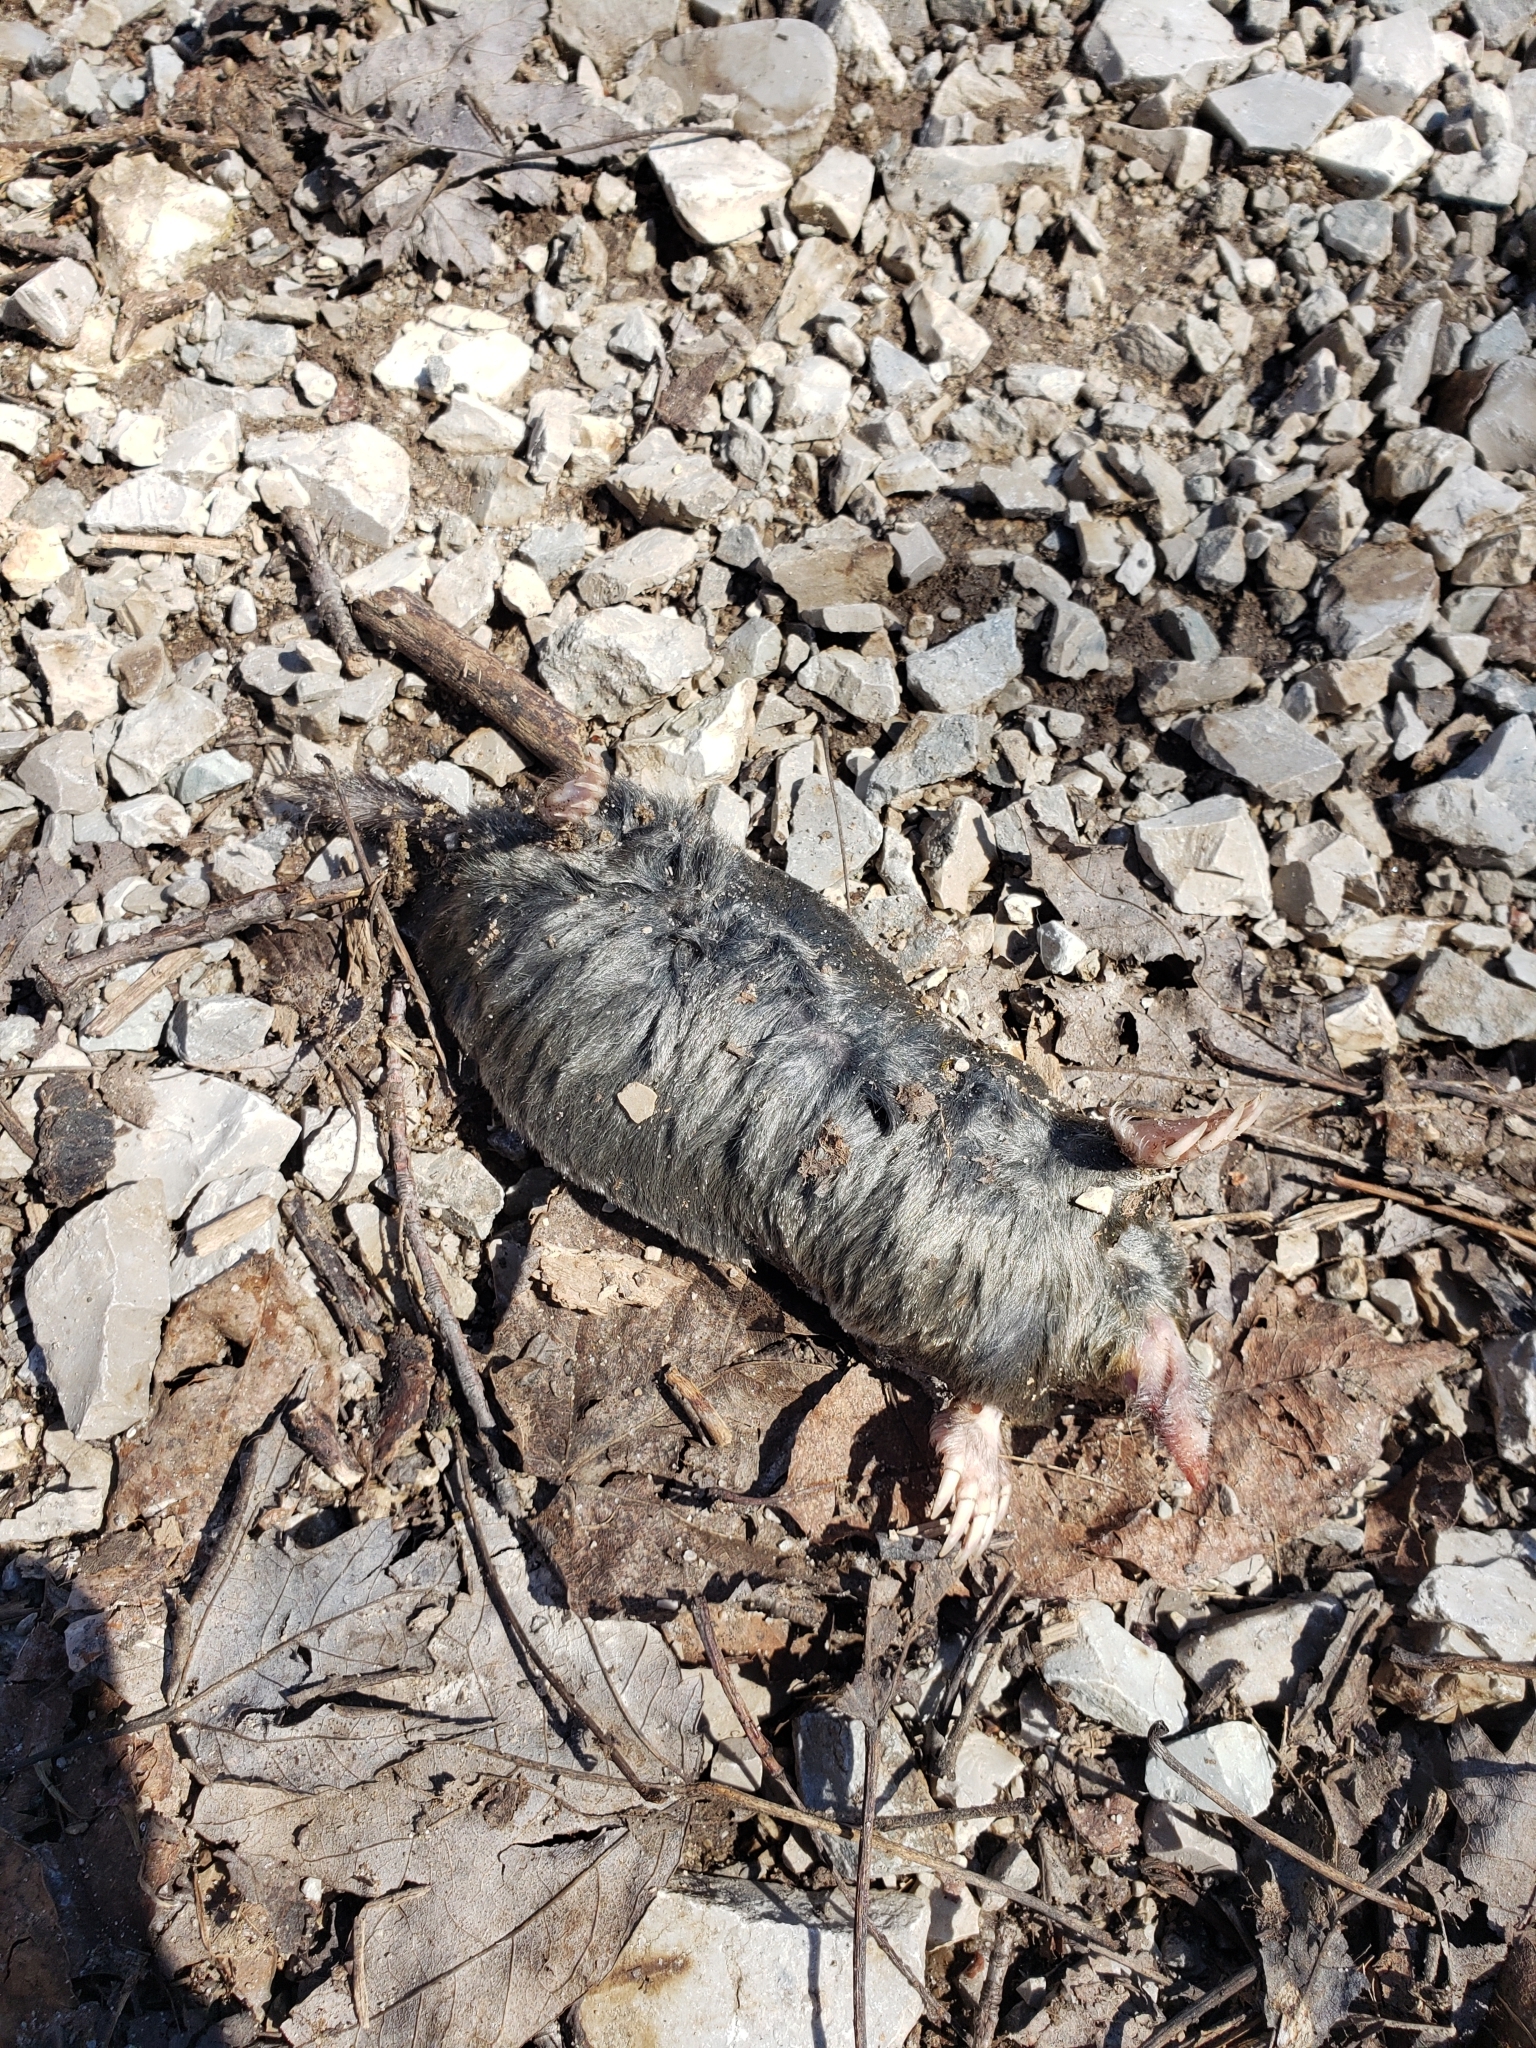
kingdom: Animalia
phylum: Chordata
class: Mammalia
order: Soricomorpha
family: Talpidae
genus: Parascalops
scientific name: Parascalops breweri
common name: Hairy-tailed mole
